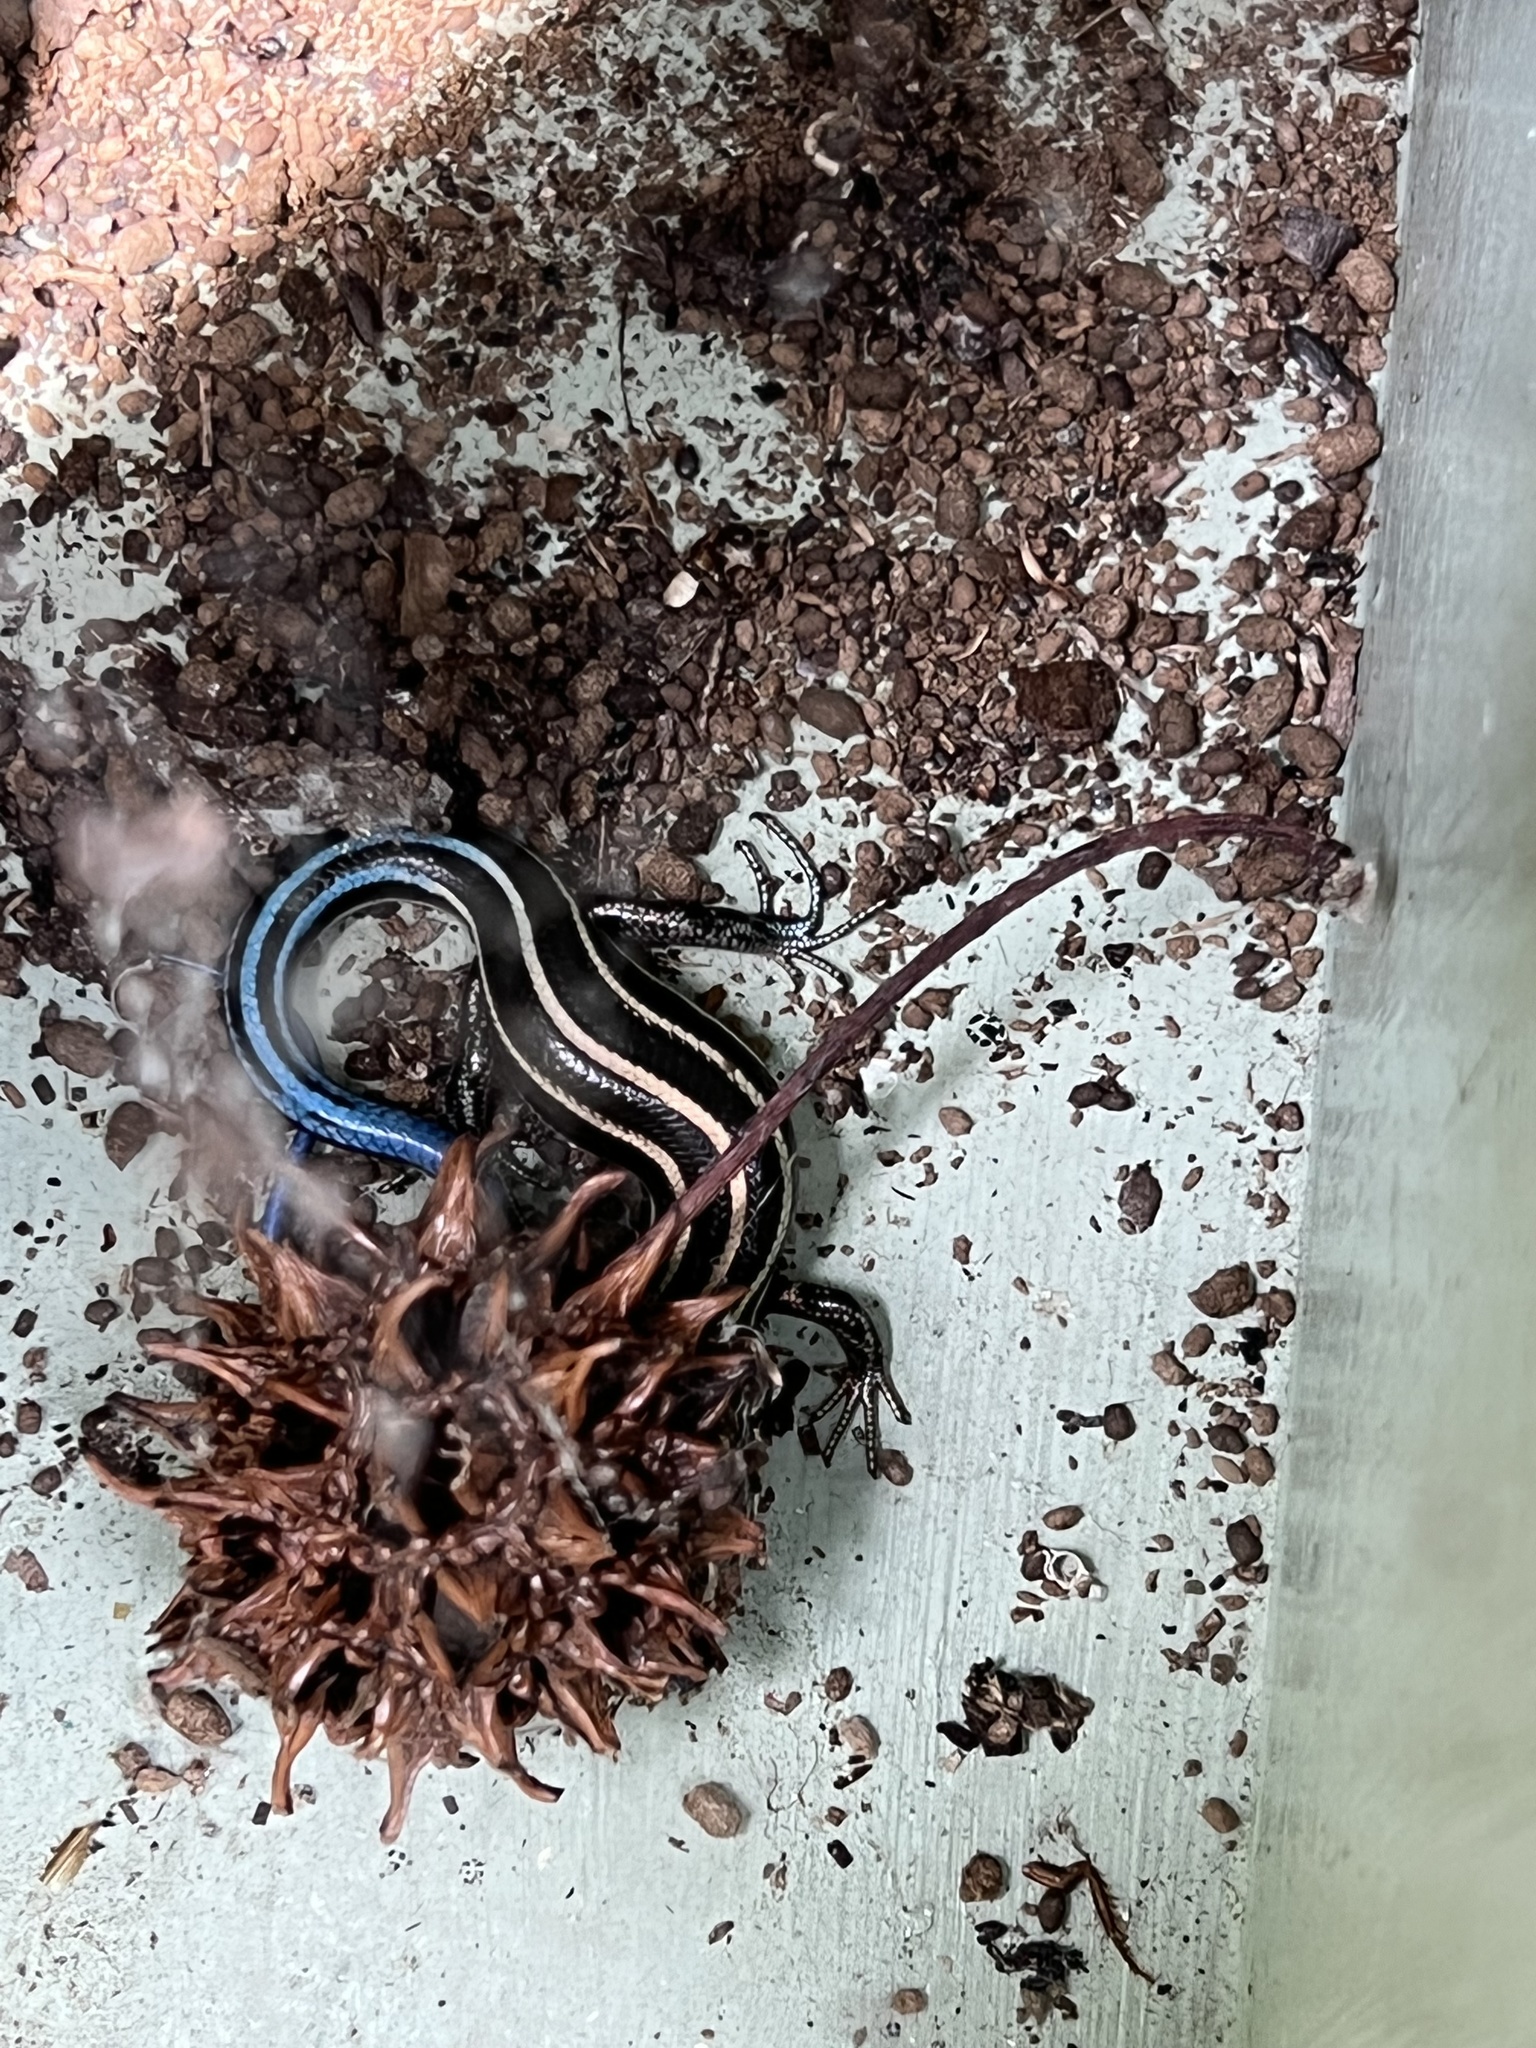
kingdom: Animalia
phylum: Chordata
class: Squamata
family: Scincidae
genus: Plestiodon
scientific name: Plestiodon fasciatus
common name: Five-lined skink
